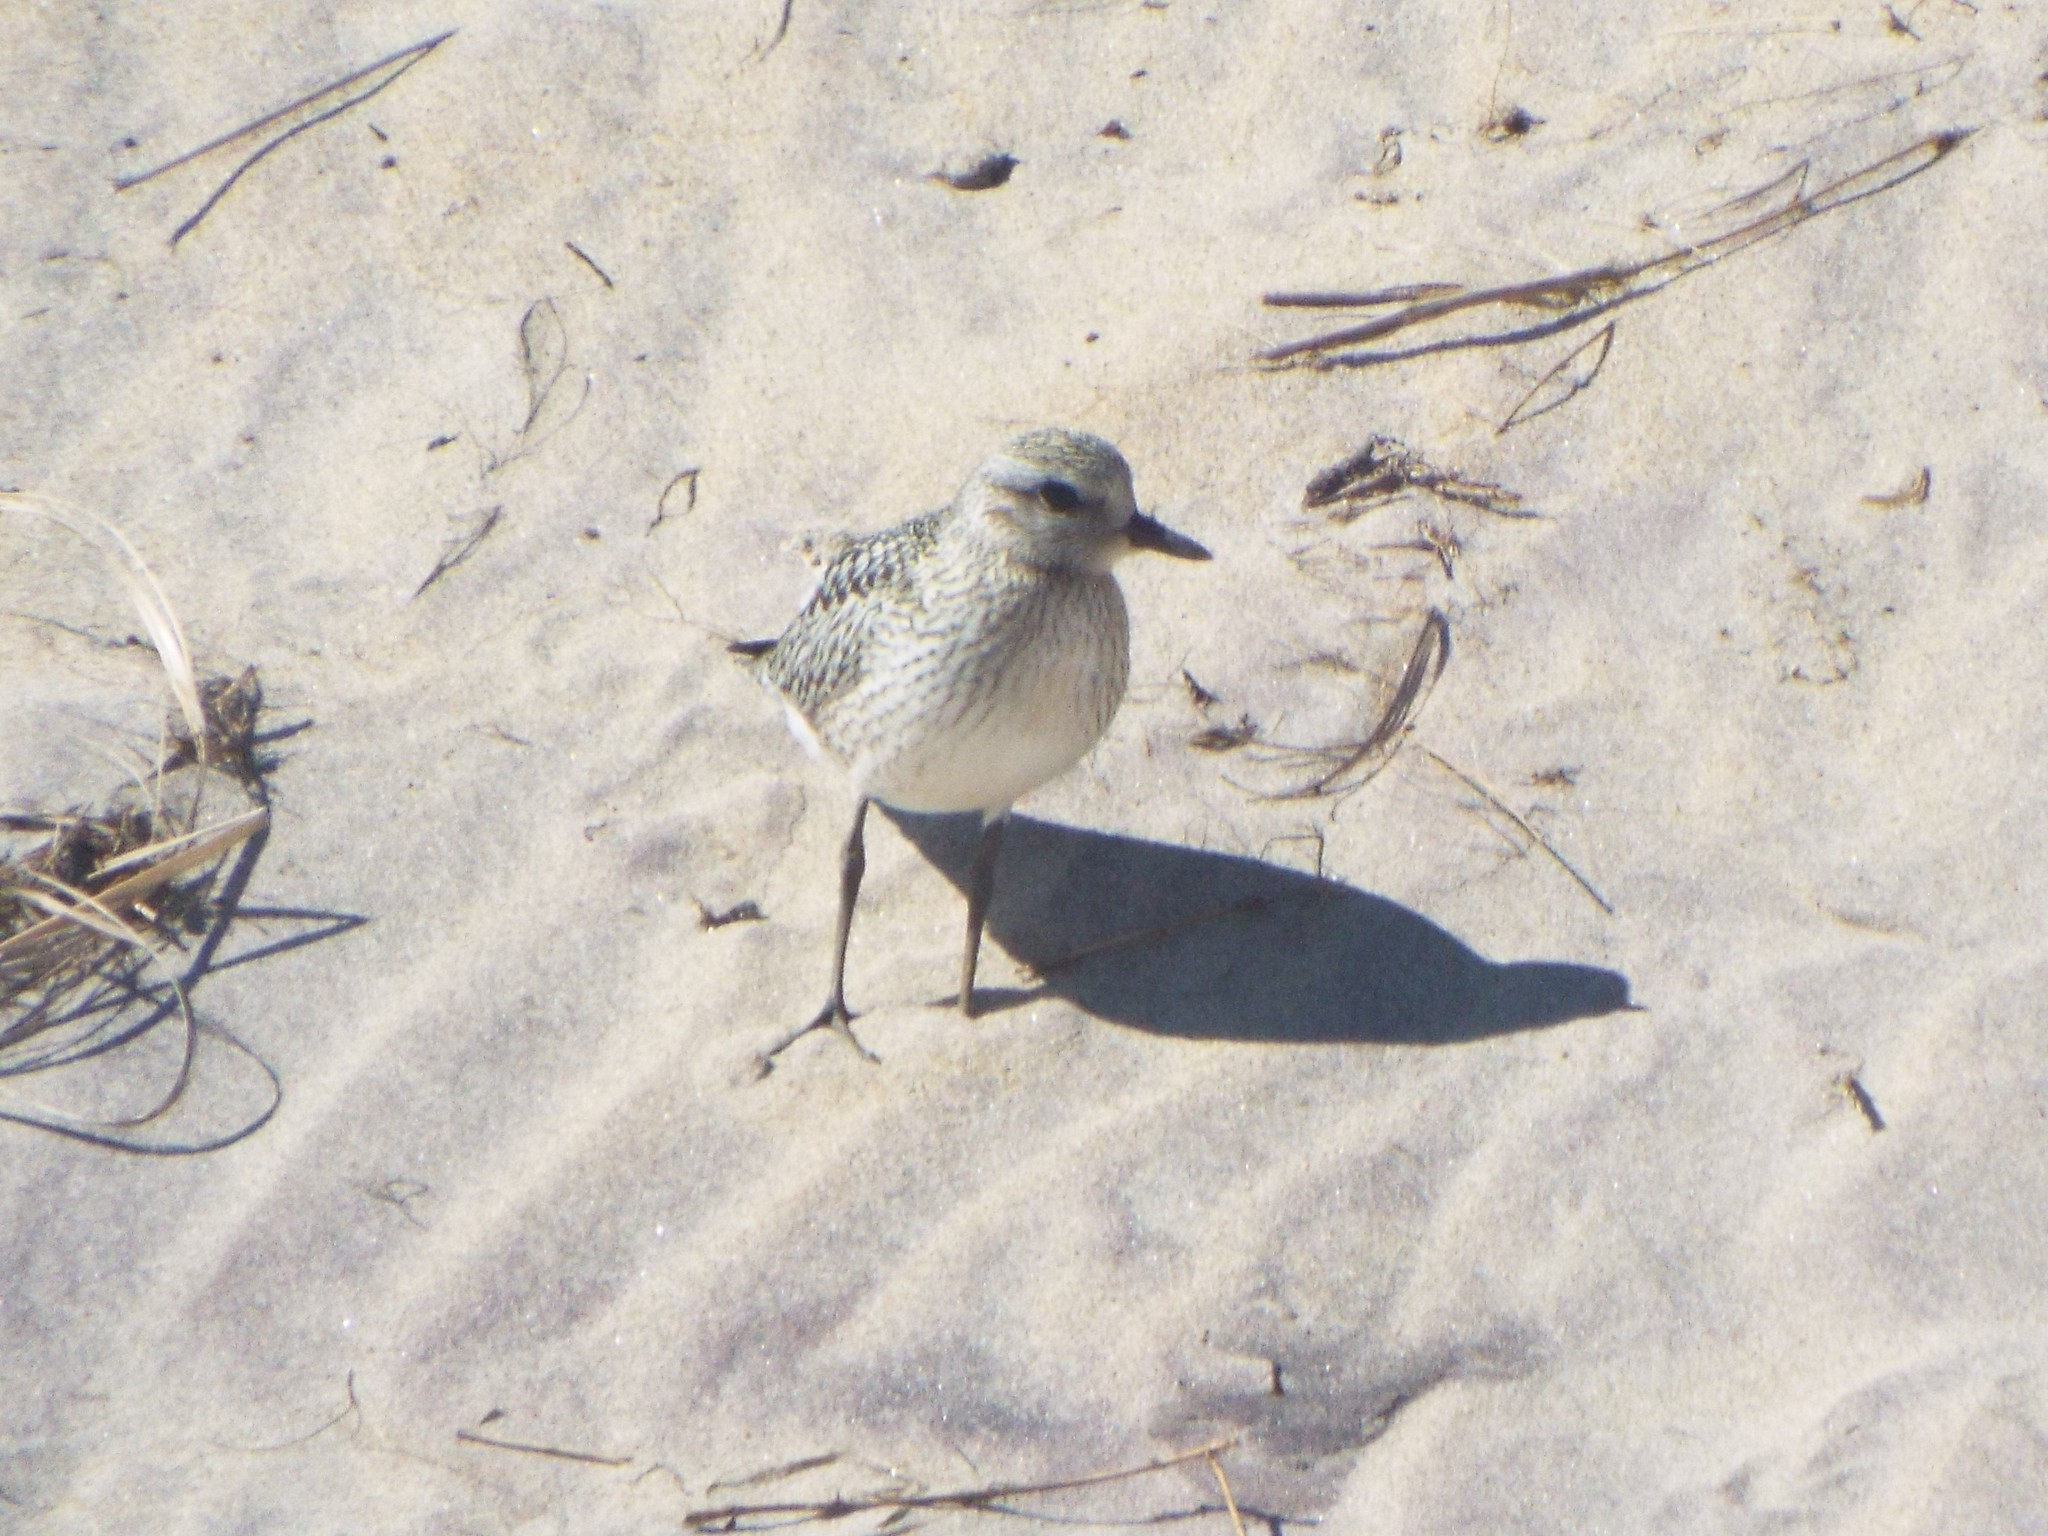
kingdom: Animalia
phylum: Chordata
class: Aves
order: Charadriiformes
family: Charadriidae
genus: Pluvialis
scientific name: Pluvialis squatarola
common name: Grey plover
